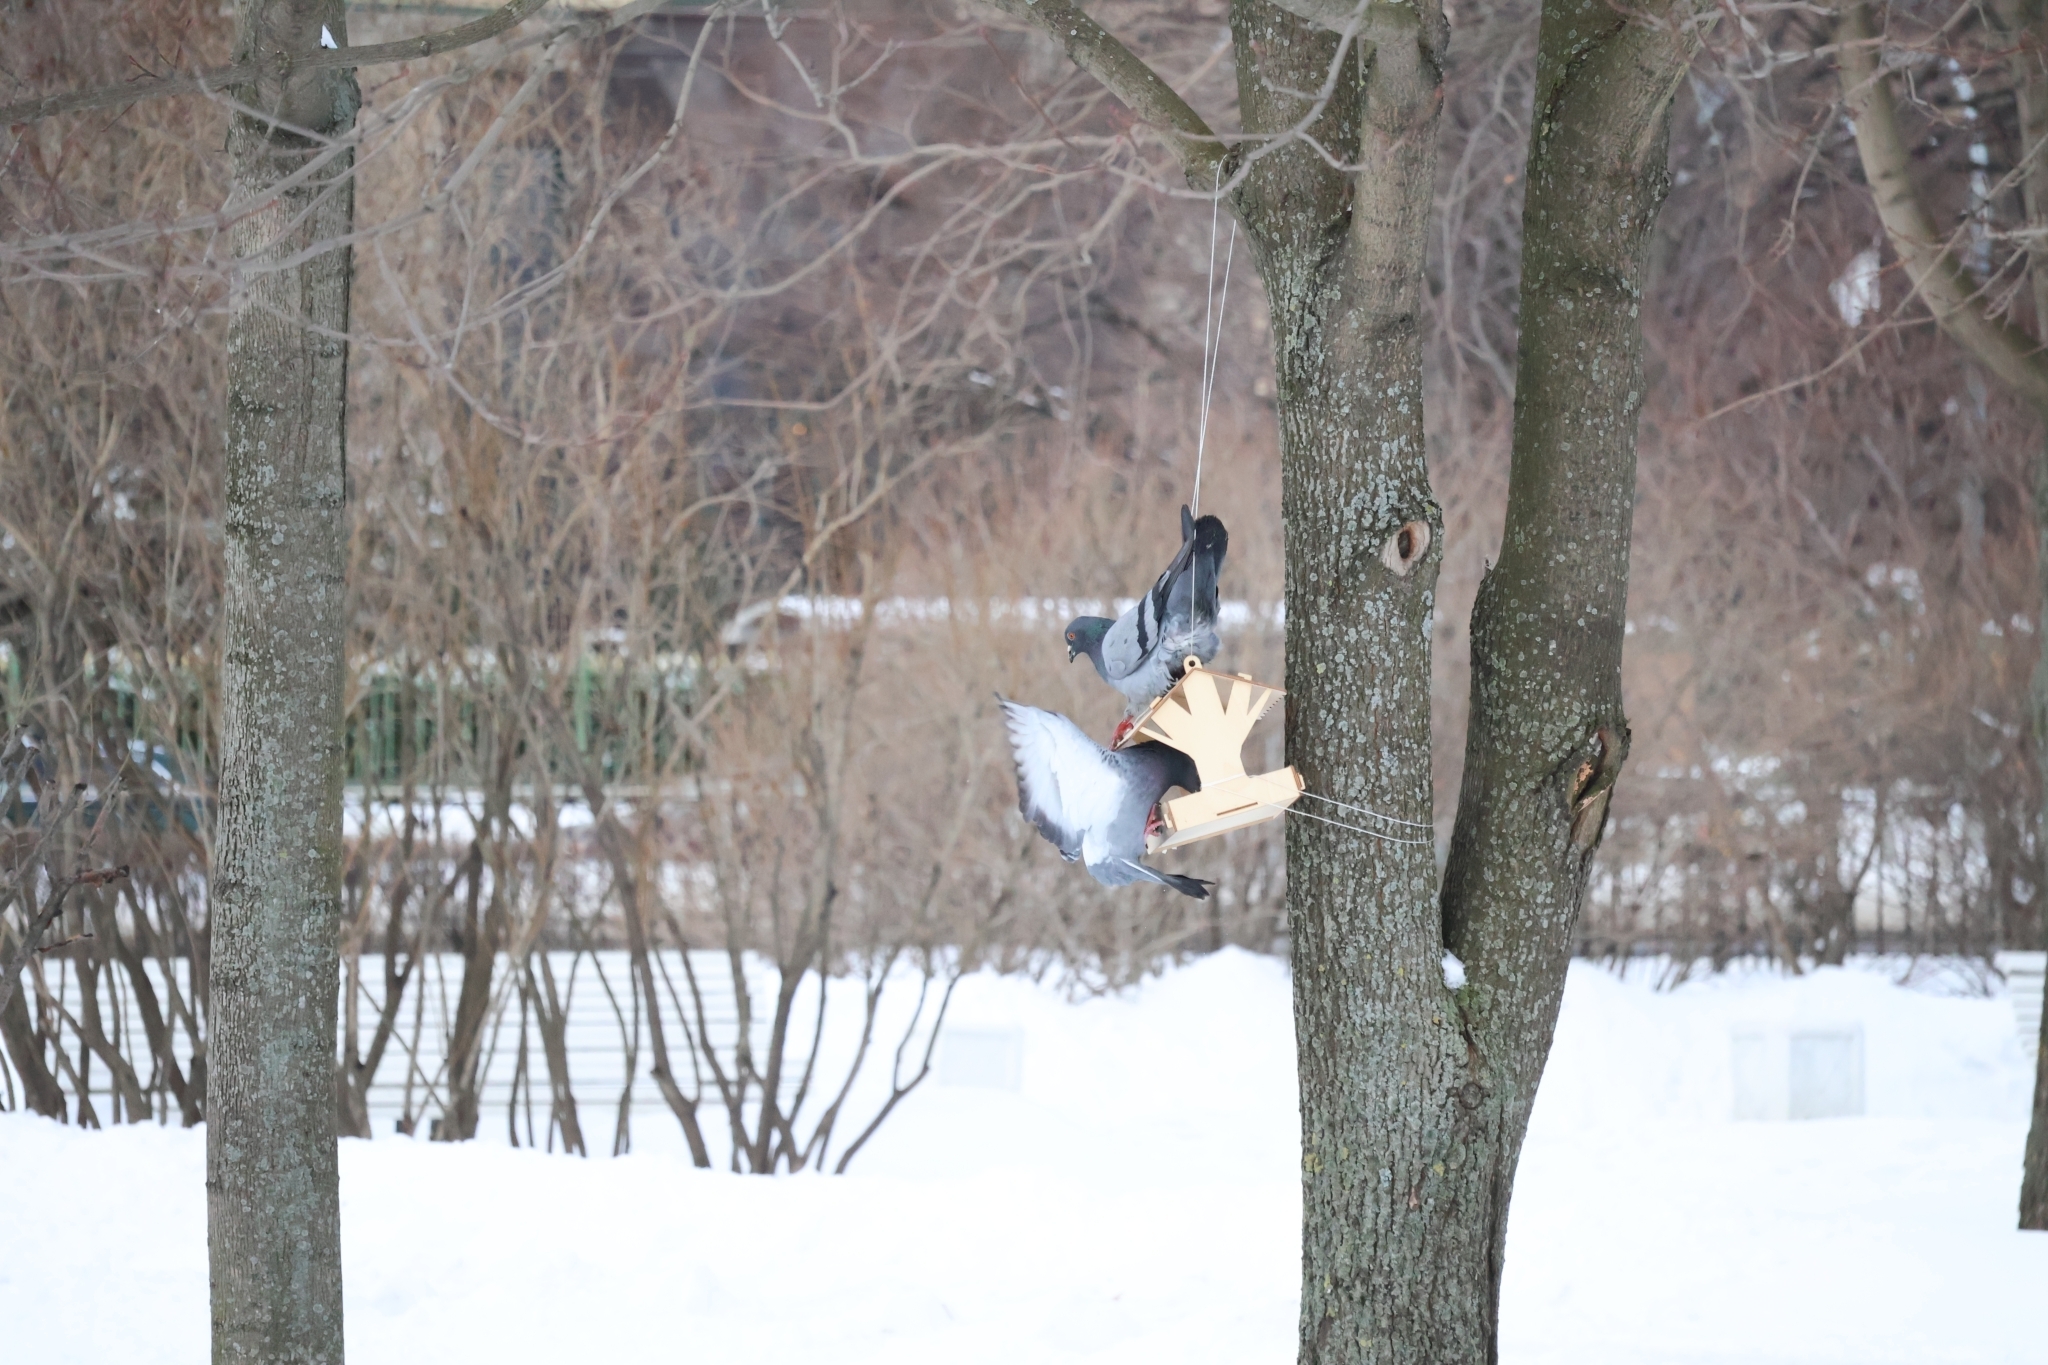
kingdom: Animalia
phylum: Chordata
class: Aves
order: Columbiformes
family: Columbidae
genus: Columba
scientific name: Columba livia
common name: Rock pigeon
